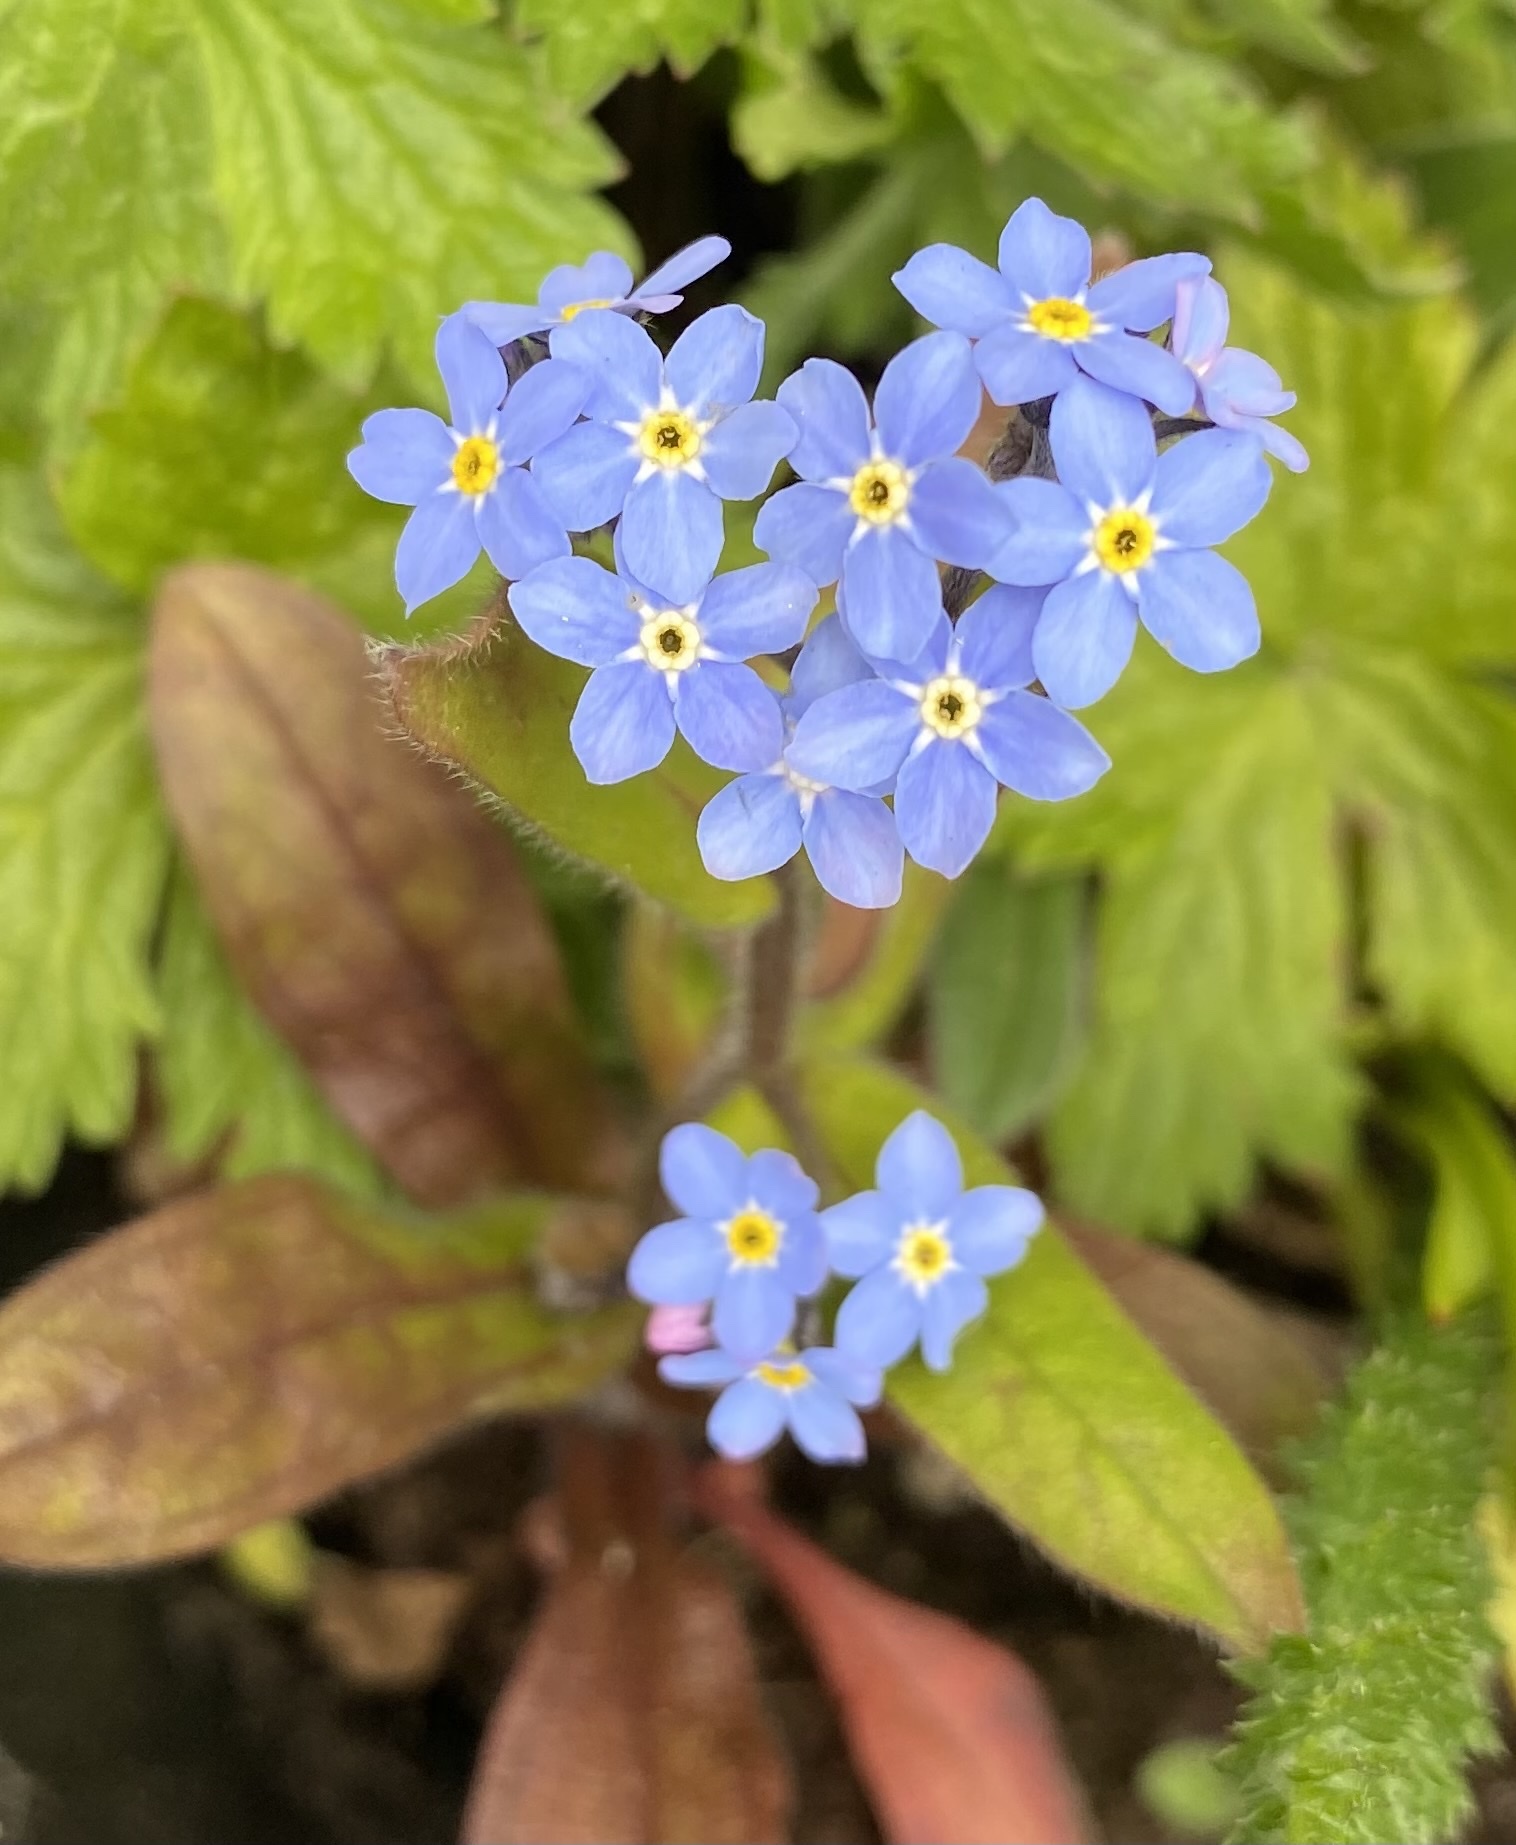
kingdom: Plantae
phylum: Tracheophyta
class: Magnoliopsida
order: Boraginales
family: Boraginaceae
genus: Myosotis
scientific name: Myosotis sylvatica
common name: Wood forget-me-not
